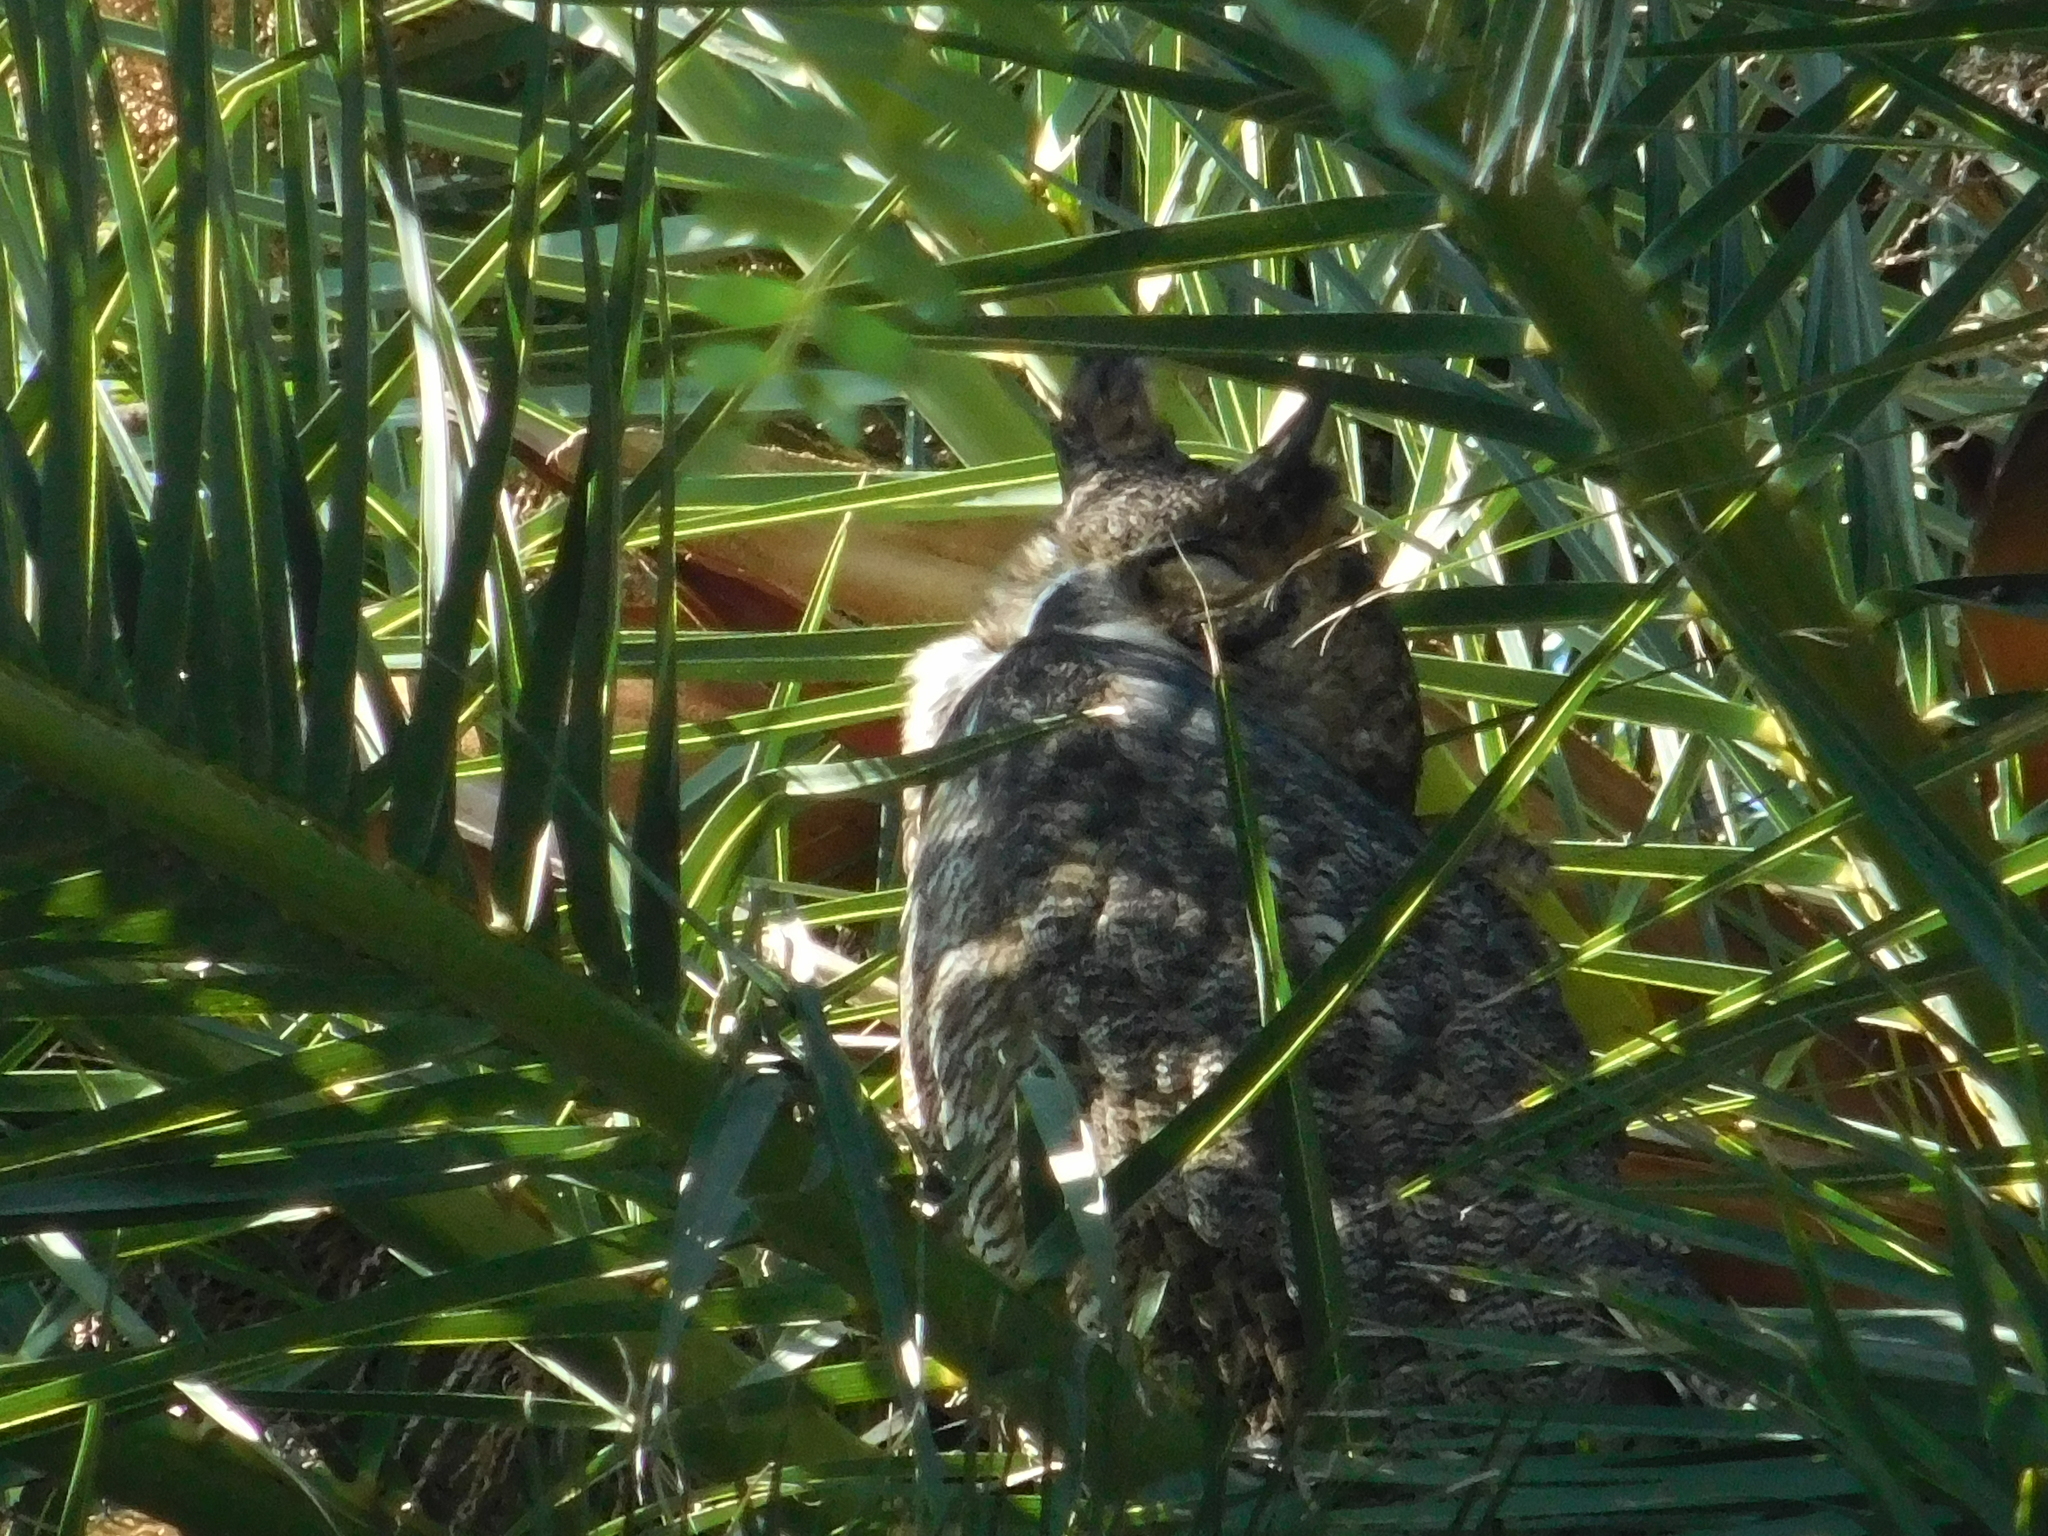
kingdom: Animalia
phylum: Chordata
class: Aves
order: Strigiformes
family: Strigidae
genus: Bubo
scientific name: Bubo virginianus
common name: Great horned owl
